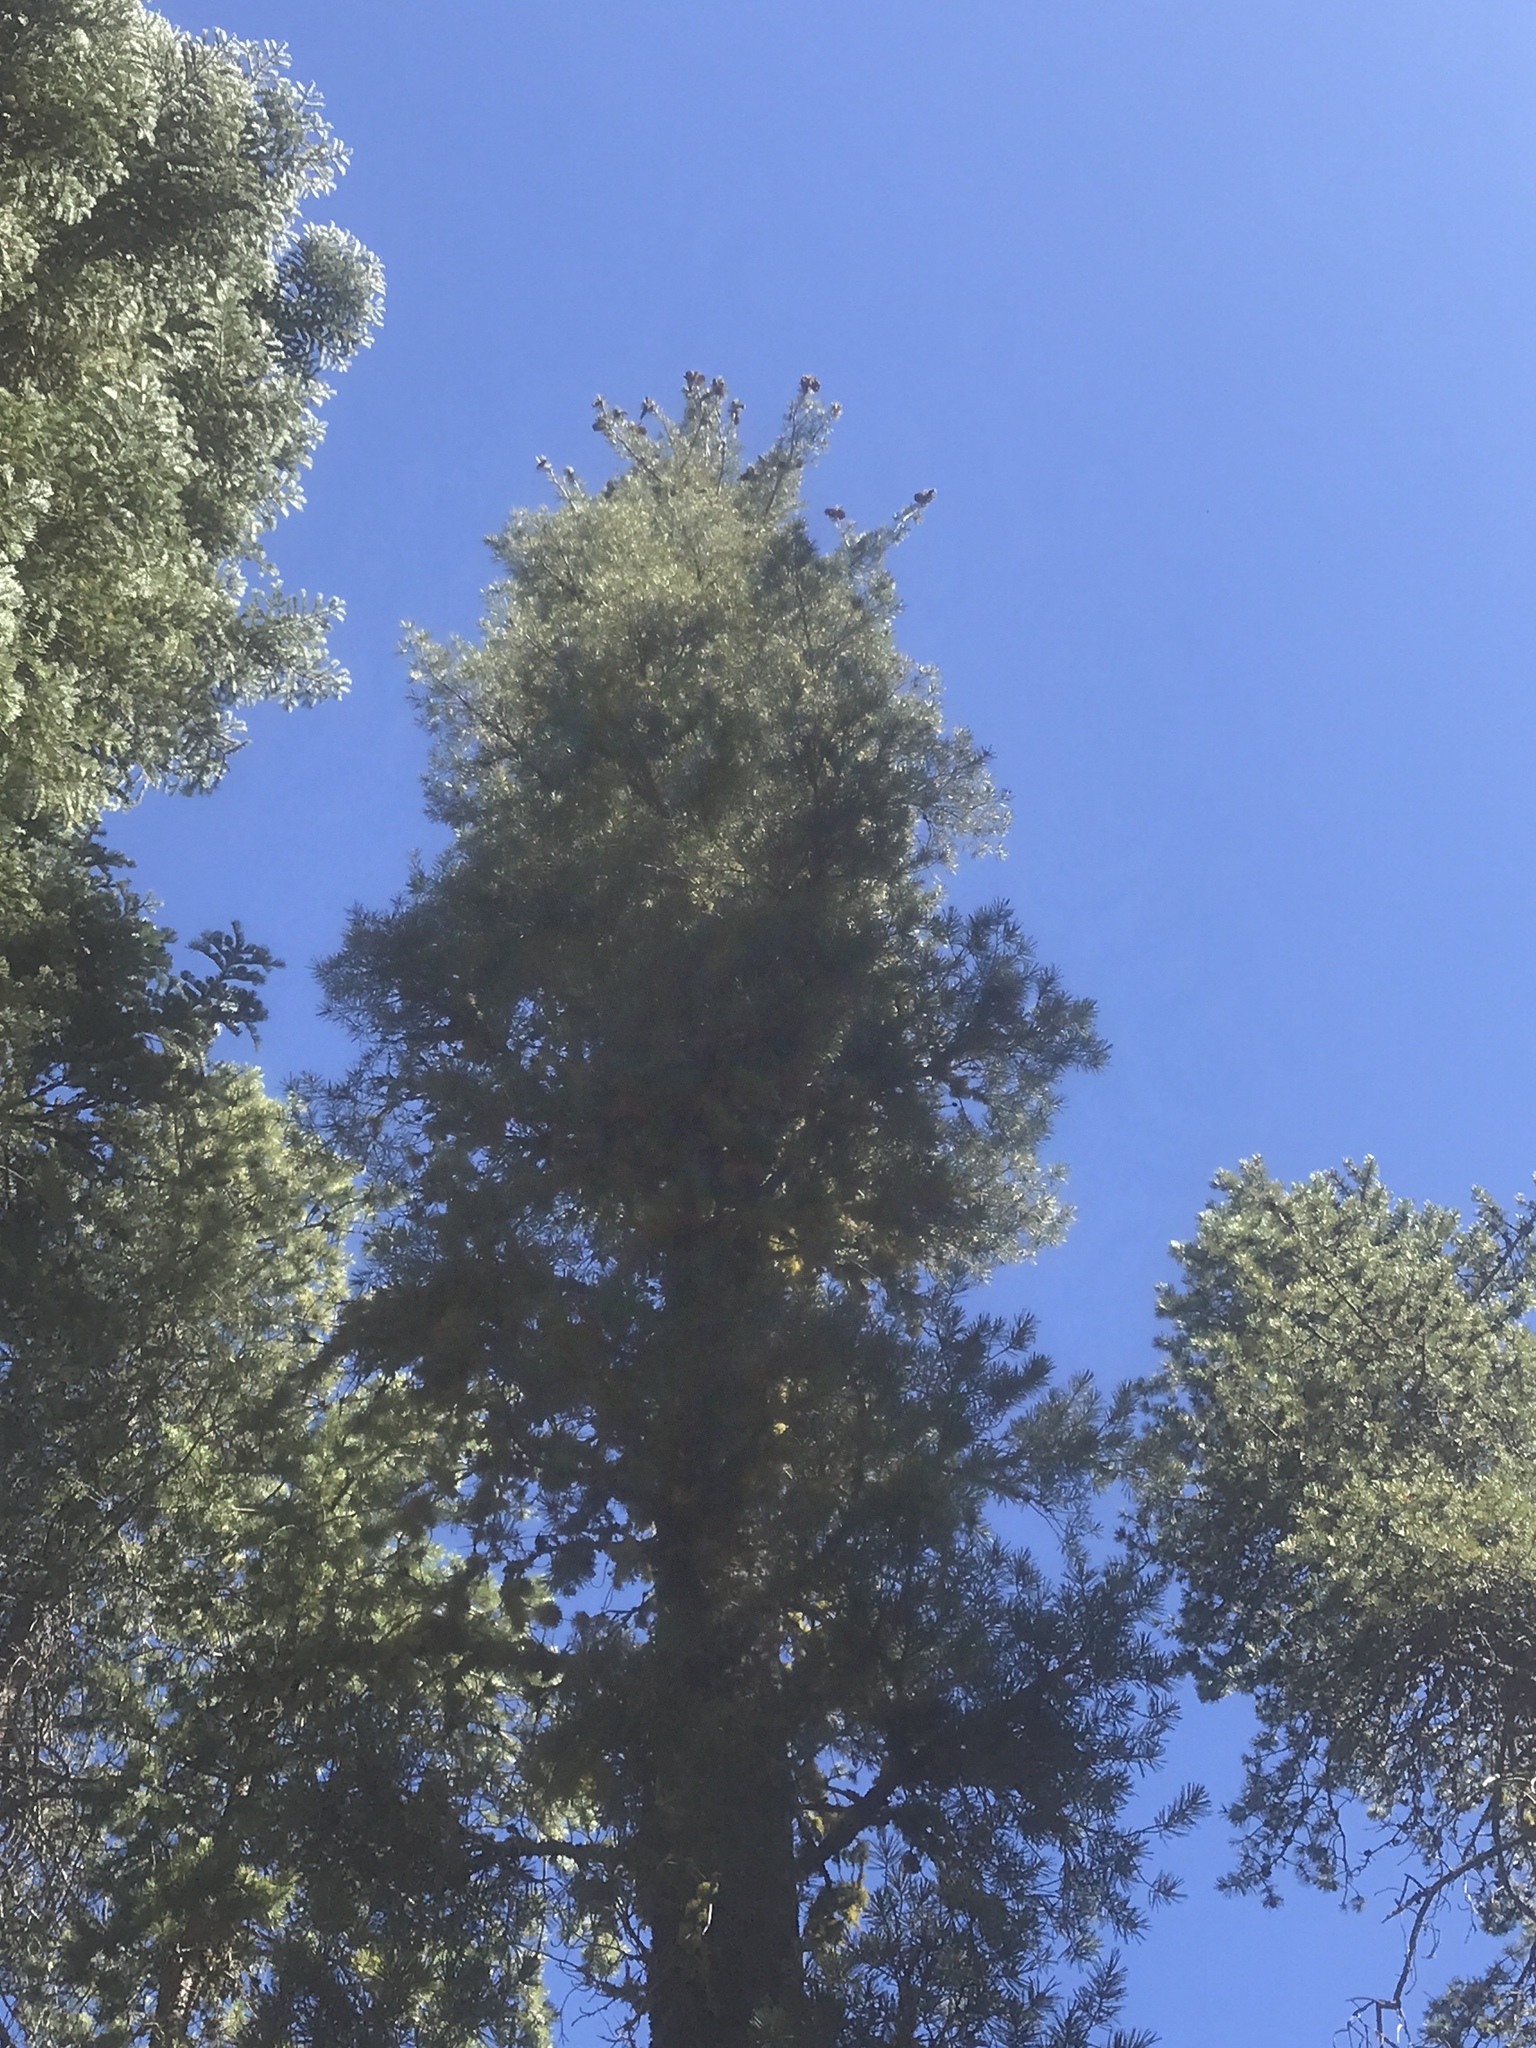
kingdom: Plantae
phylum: Tracheophyta
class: Pinopsida
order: Pinales
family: Pinaceae
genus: Pinus
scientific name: Pinus monticola
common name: Western white pine
